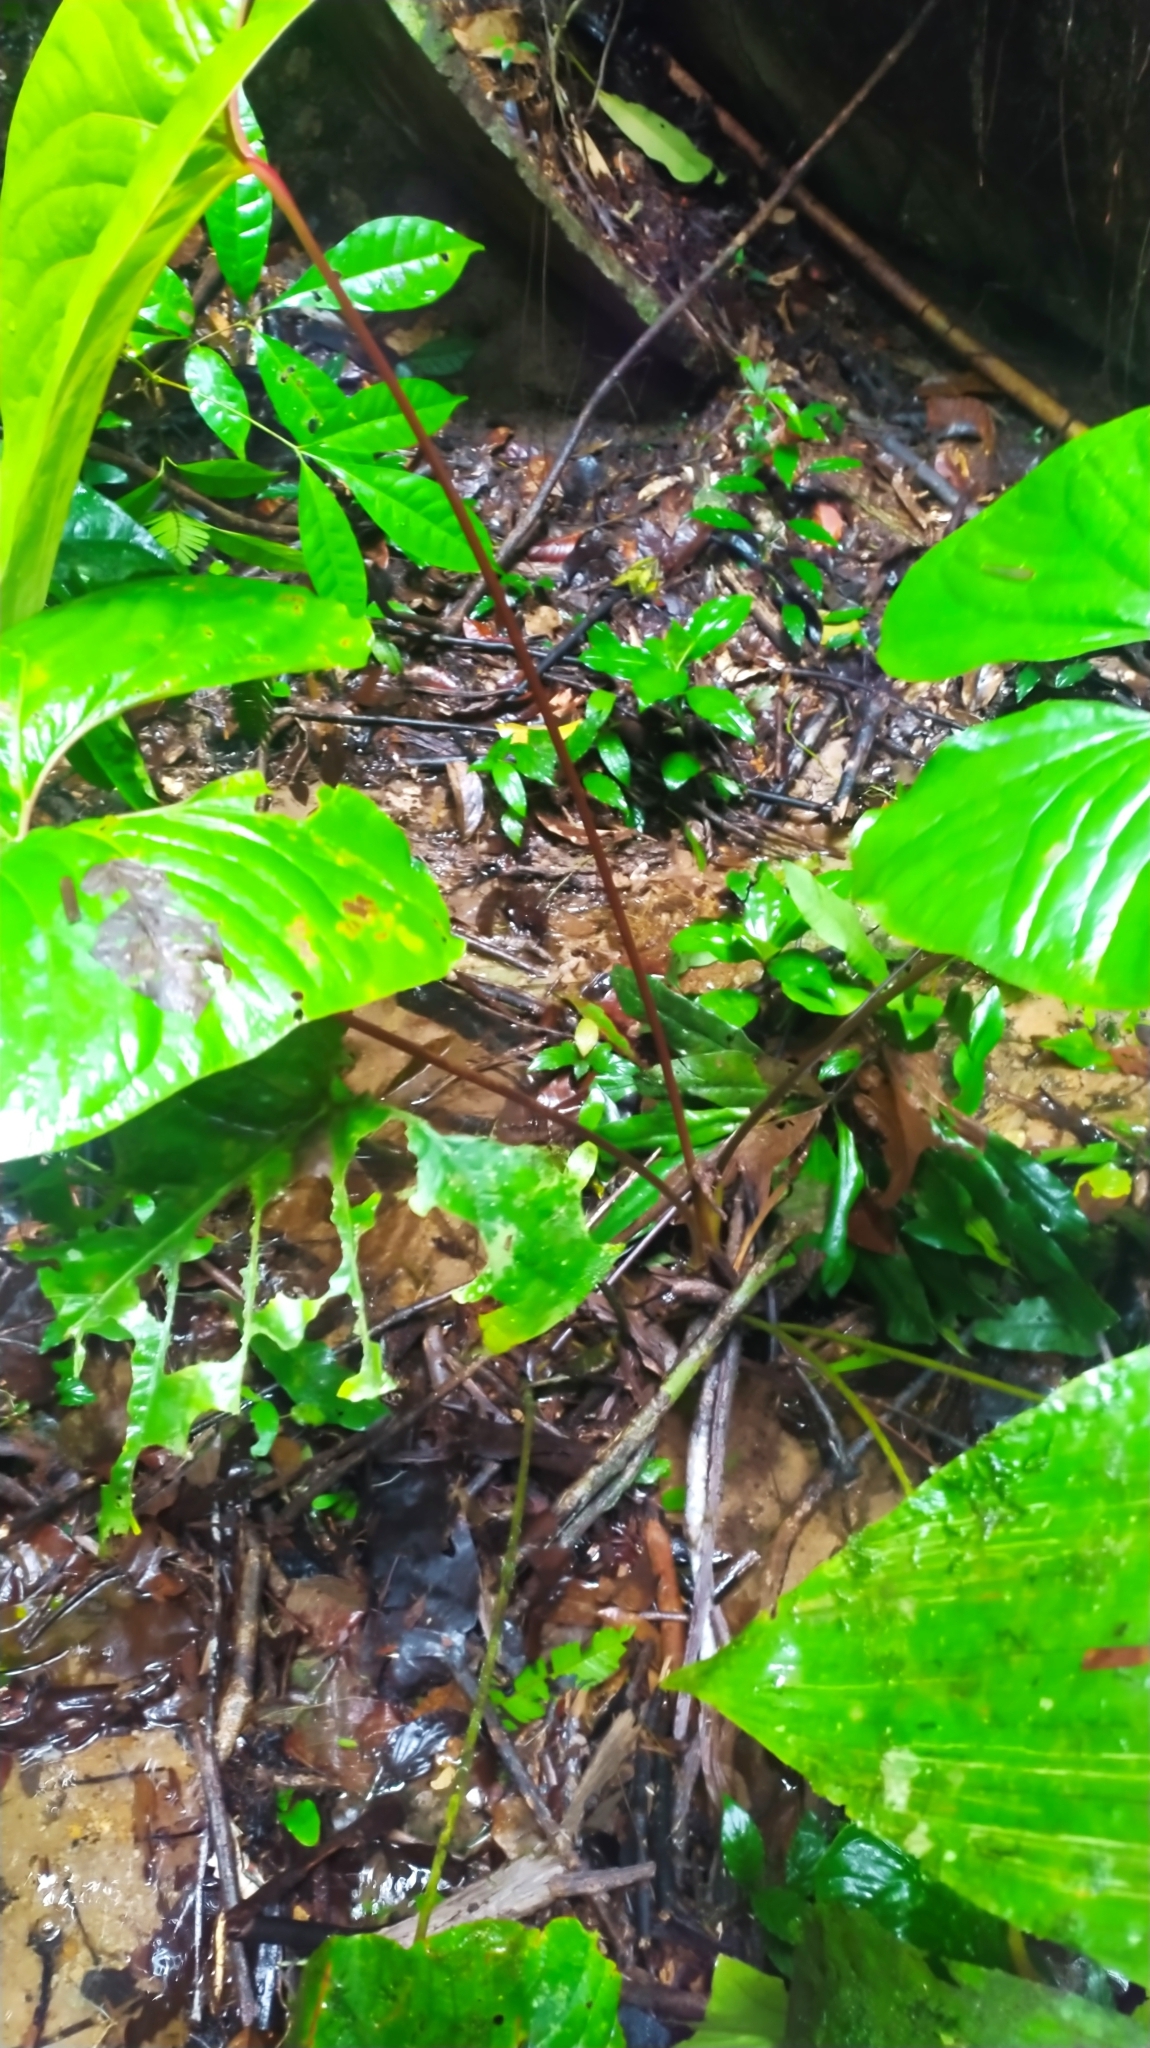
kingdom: Plantae
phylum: Tracheophyta
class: Liliopsida
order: Alismatales
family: Araceae
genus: Anthurium
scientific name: Anthurium sagittatum
